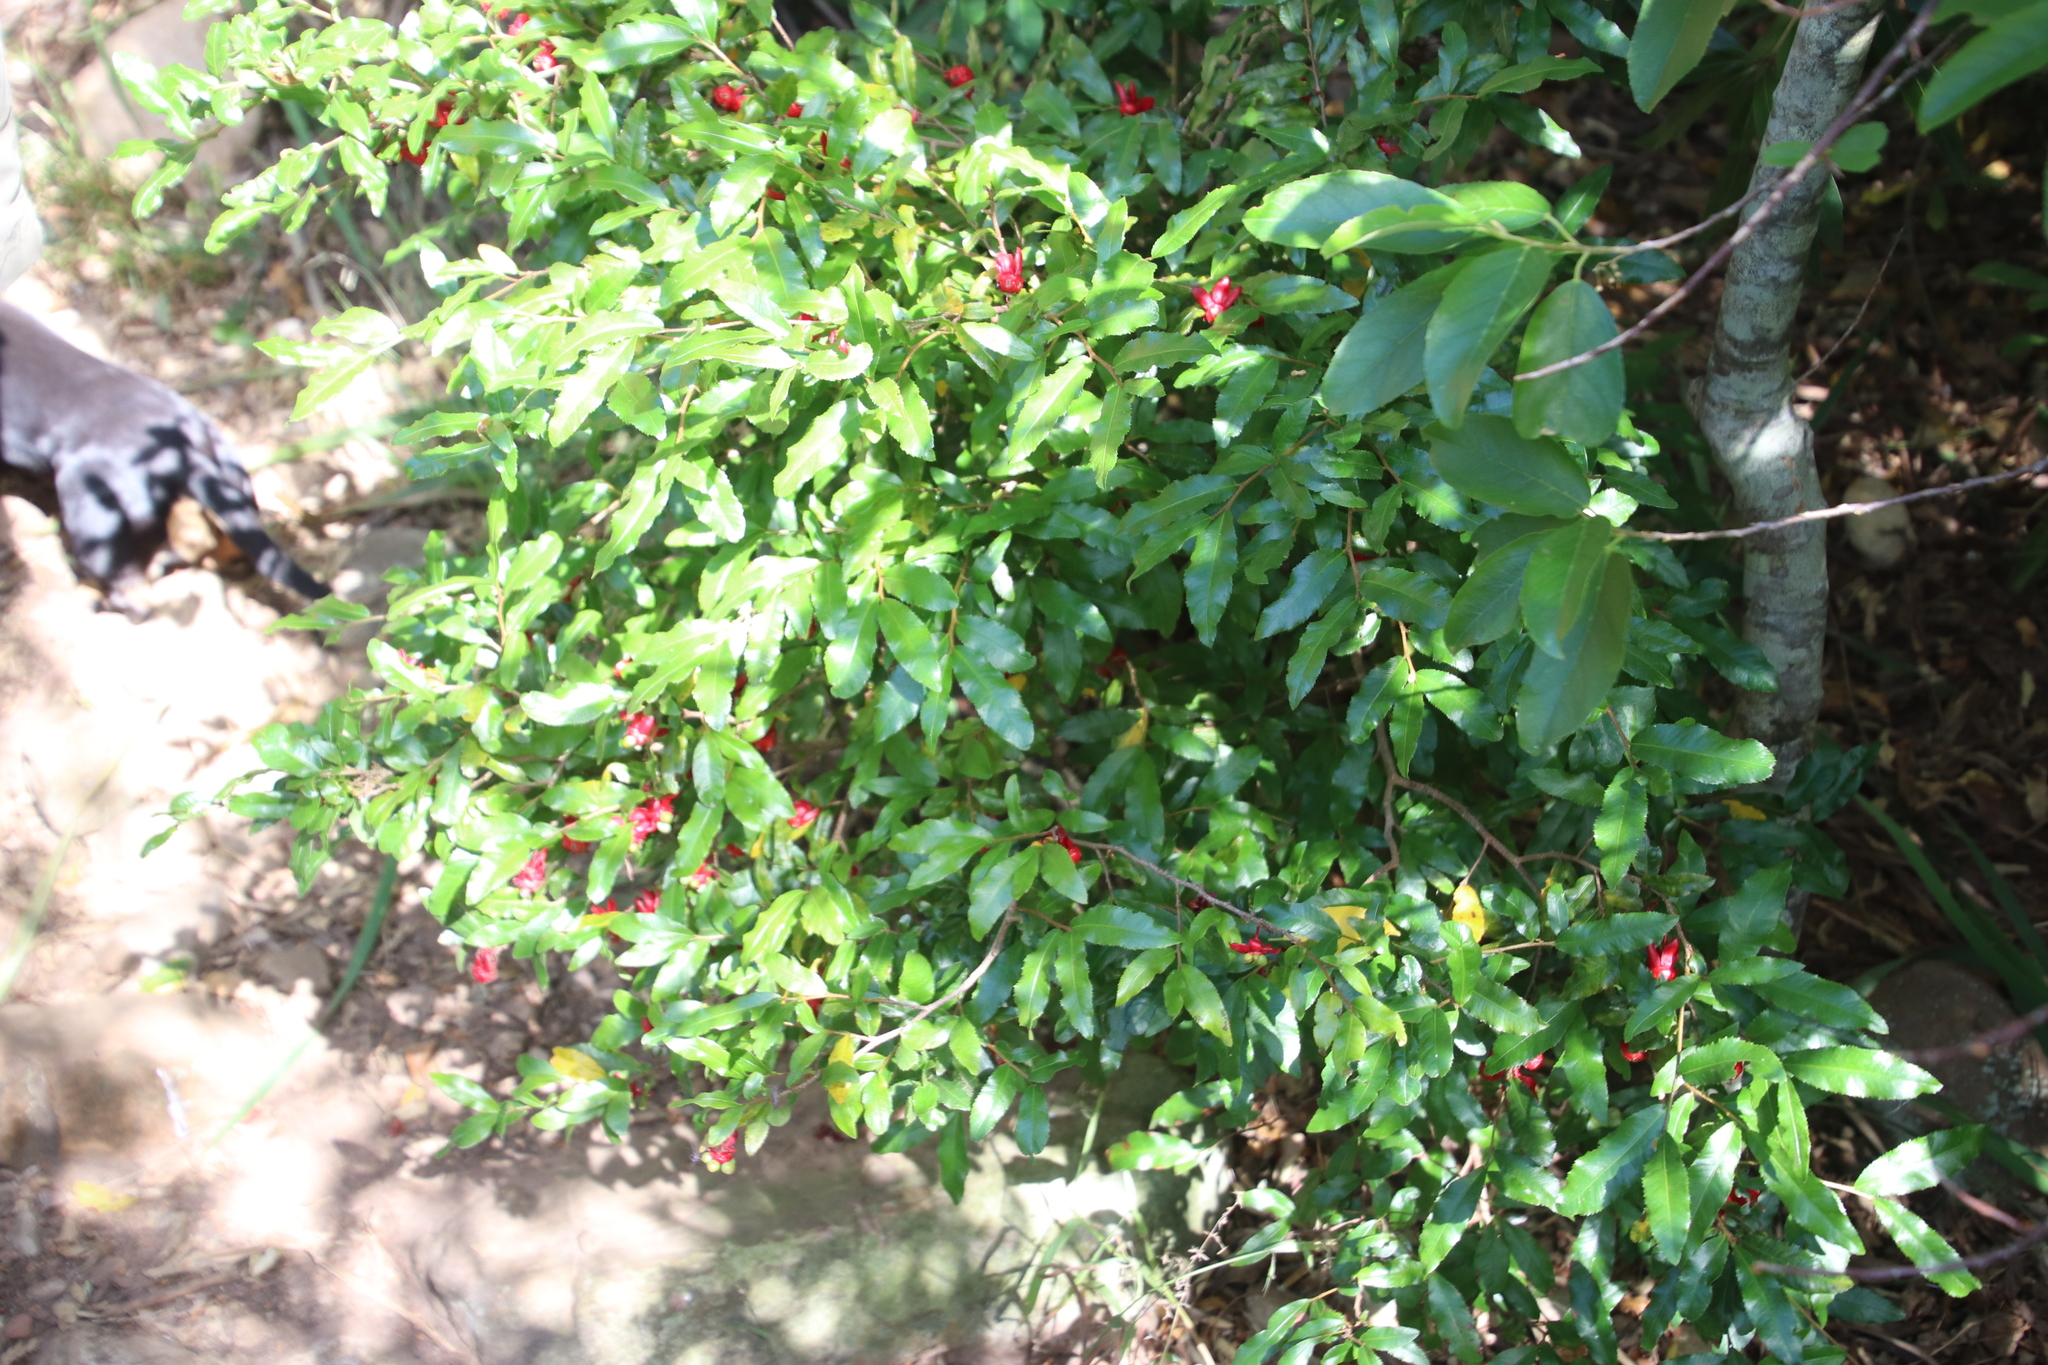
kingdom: Plantae
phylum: Tracheophyta
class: Magnoliopsida
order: Malpighiales
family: Ochnaceae
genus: Ochna
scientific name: Ochna serrulata
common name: Mickey mouse plant
